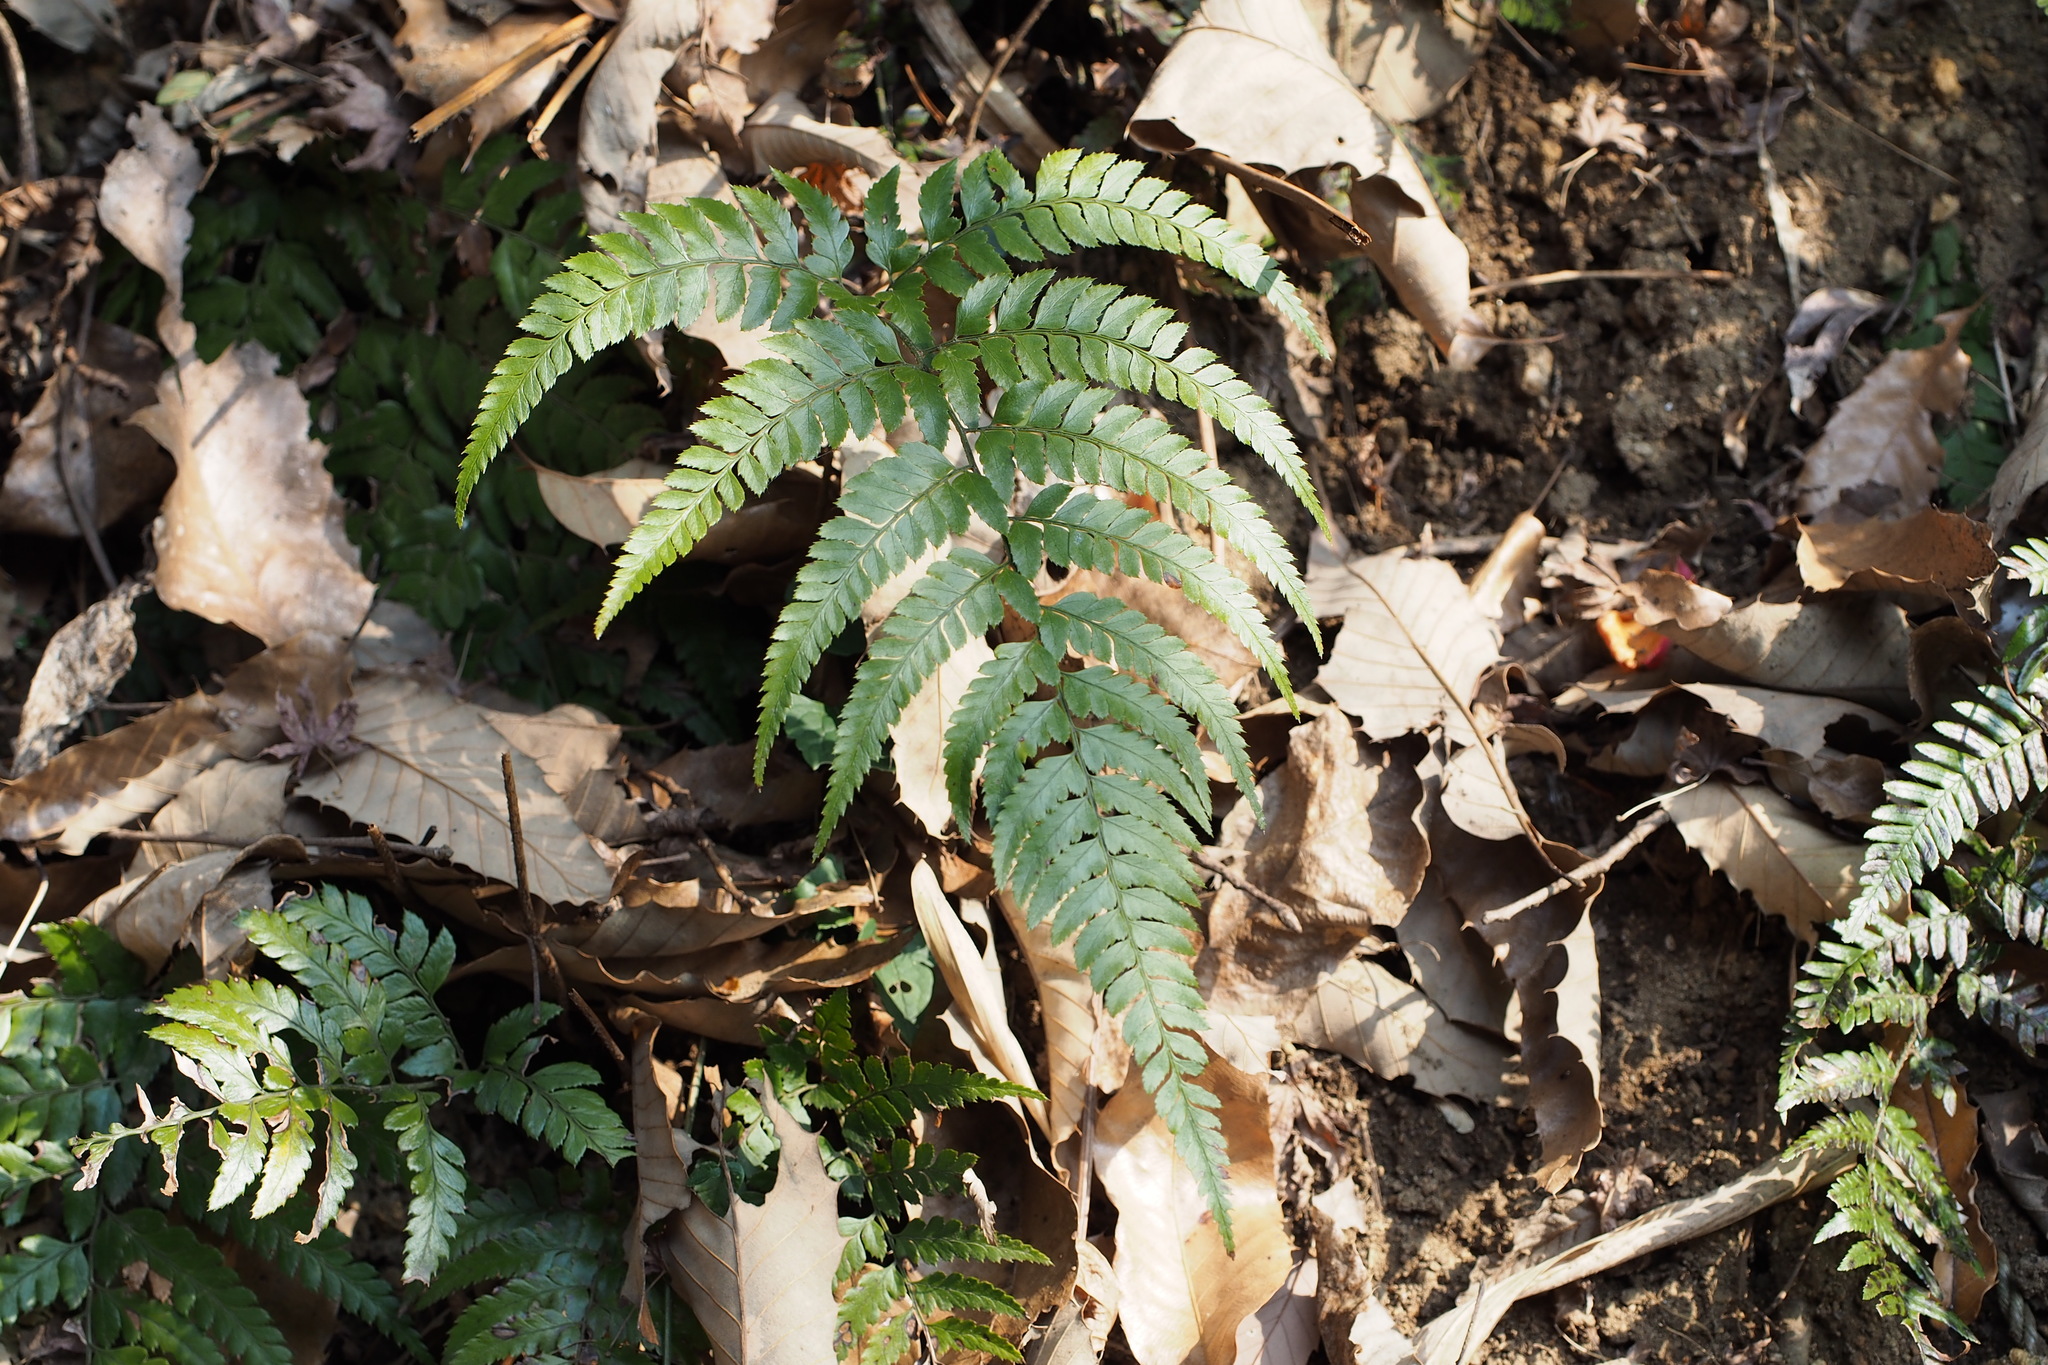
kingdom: Plantae
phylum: Tracheophyta
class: Polypodiopsida
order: Polypodiales
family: Dryopteridaceae
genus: Arachniodes
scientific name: Arachniodes chinensis
